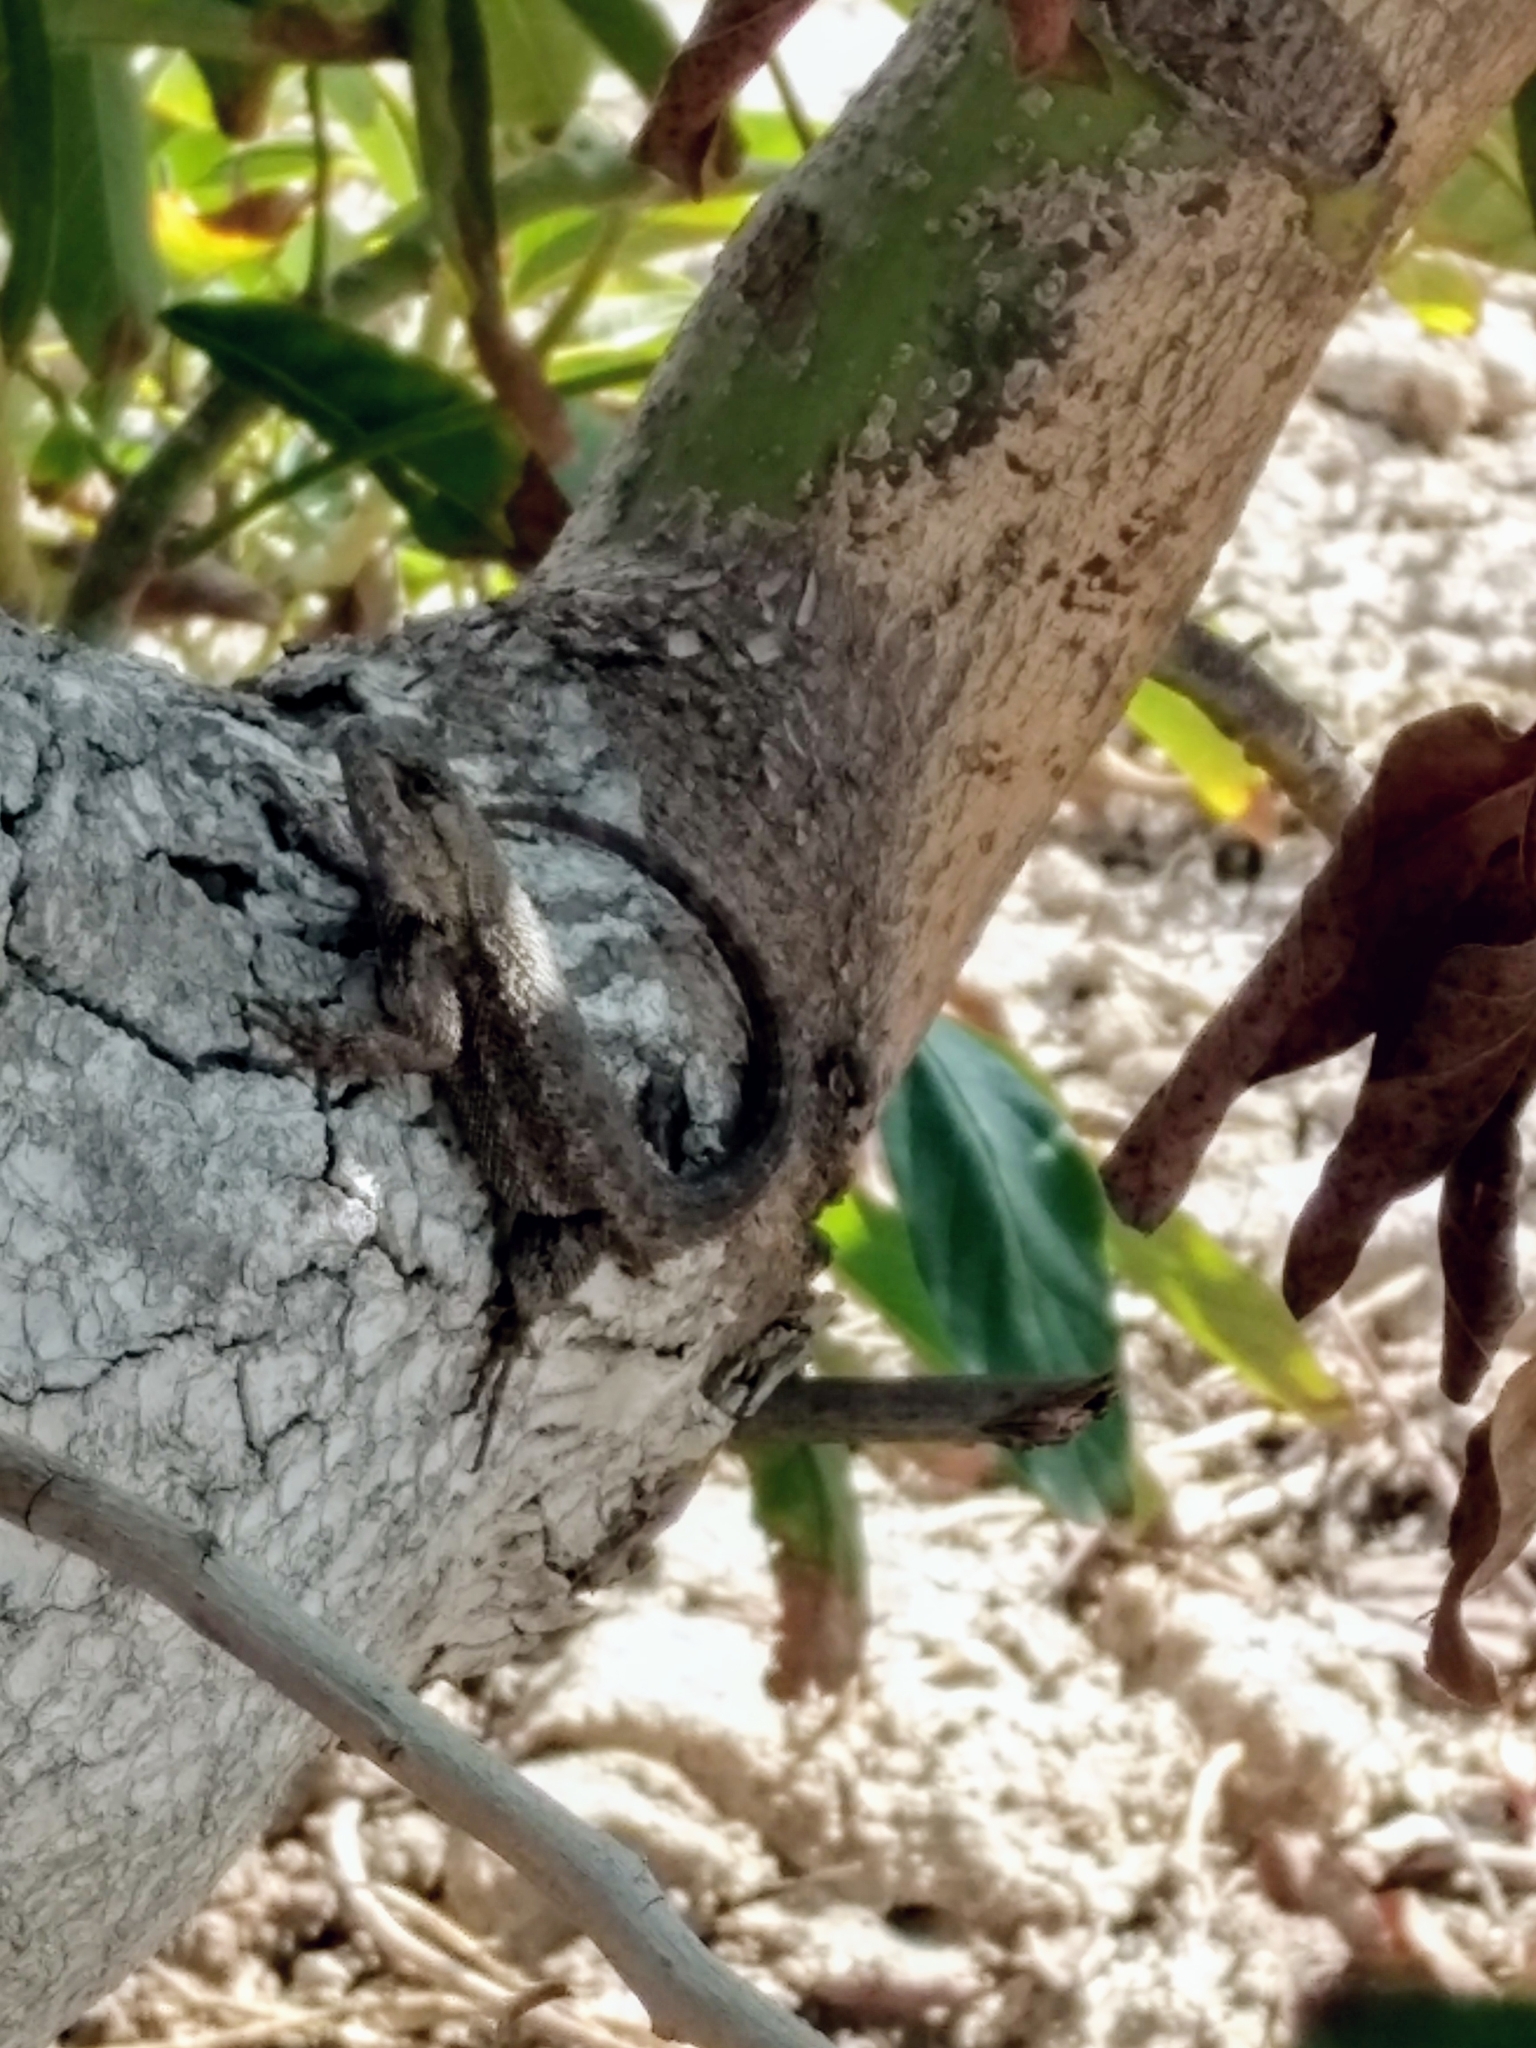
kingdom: Animalia
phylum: Chordata
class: Squamata
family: Phrynosomatidae
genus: Sceloporus
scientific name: Sceloporus occidentalis
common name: Western fence lizard
